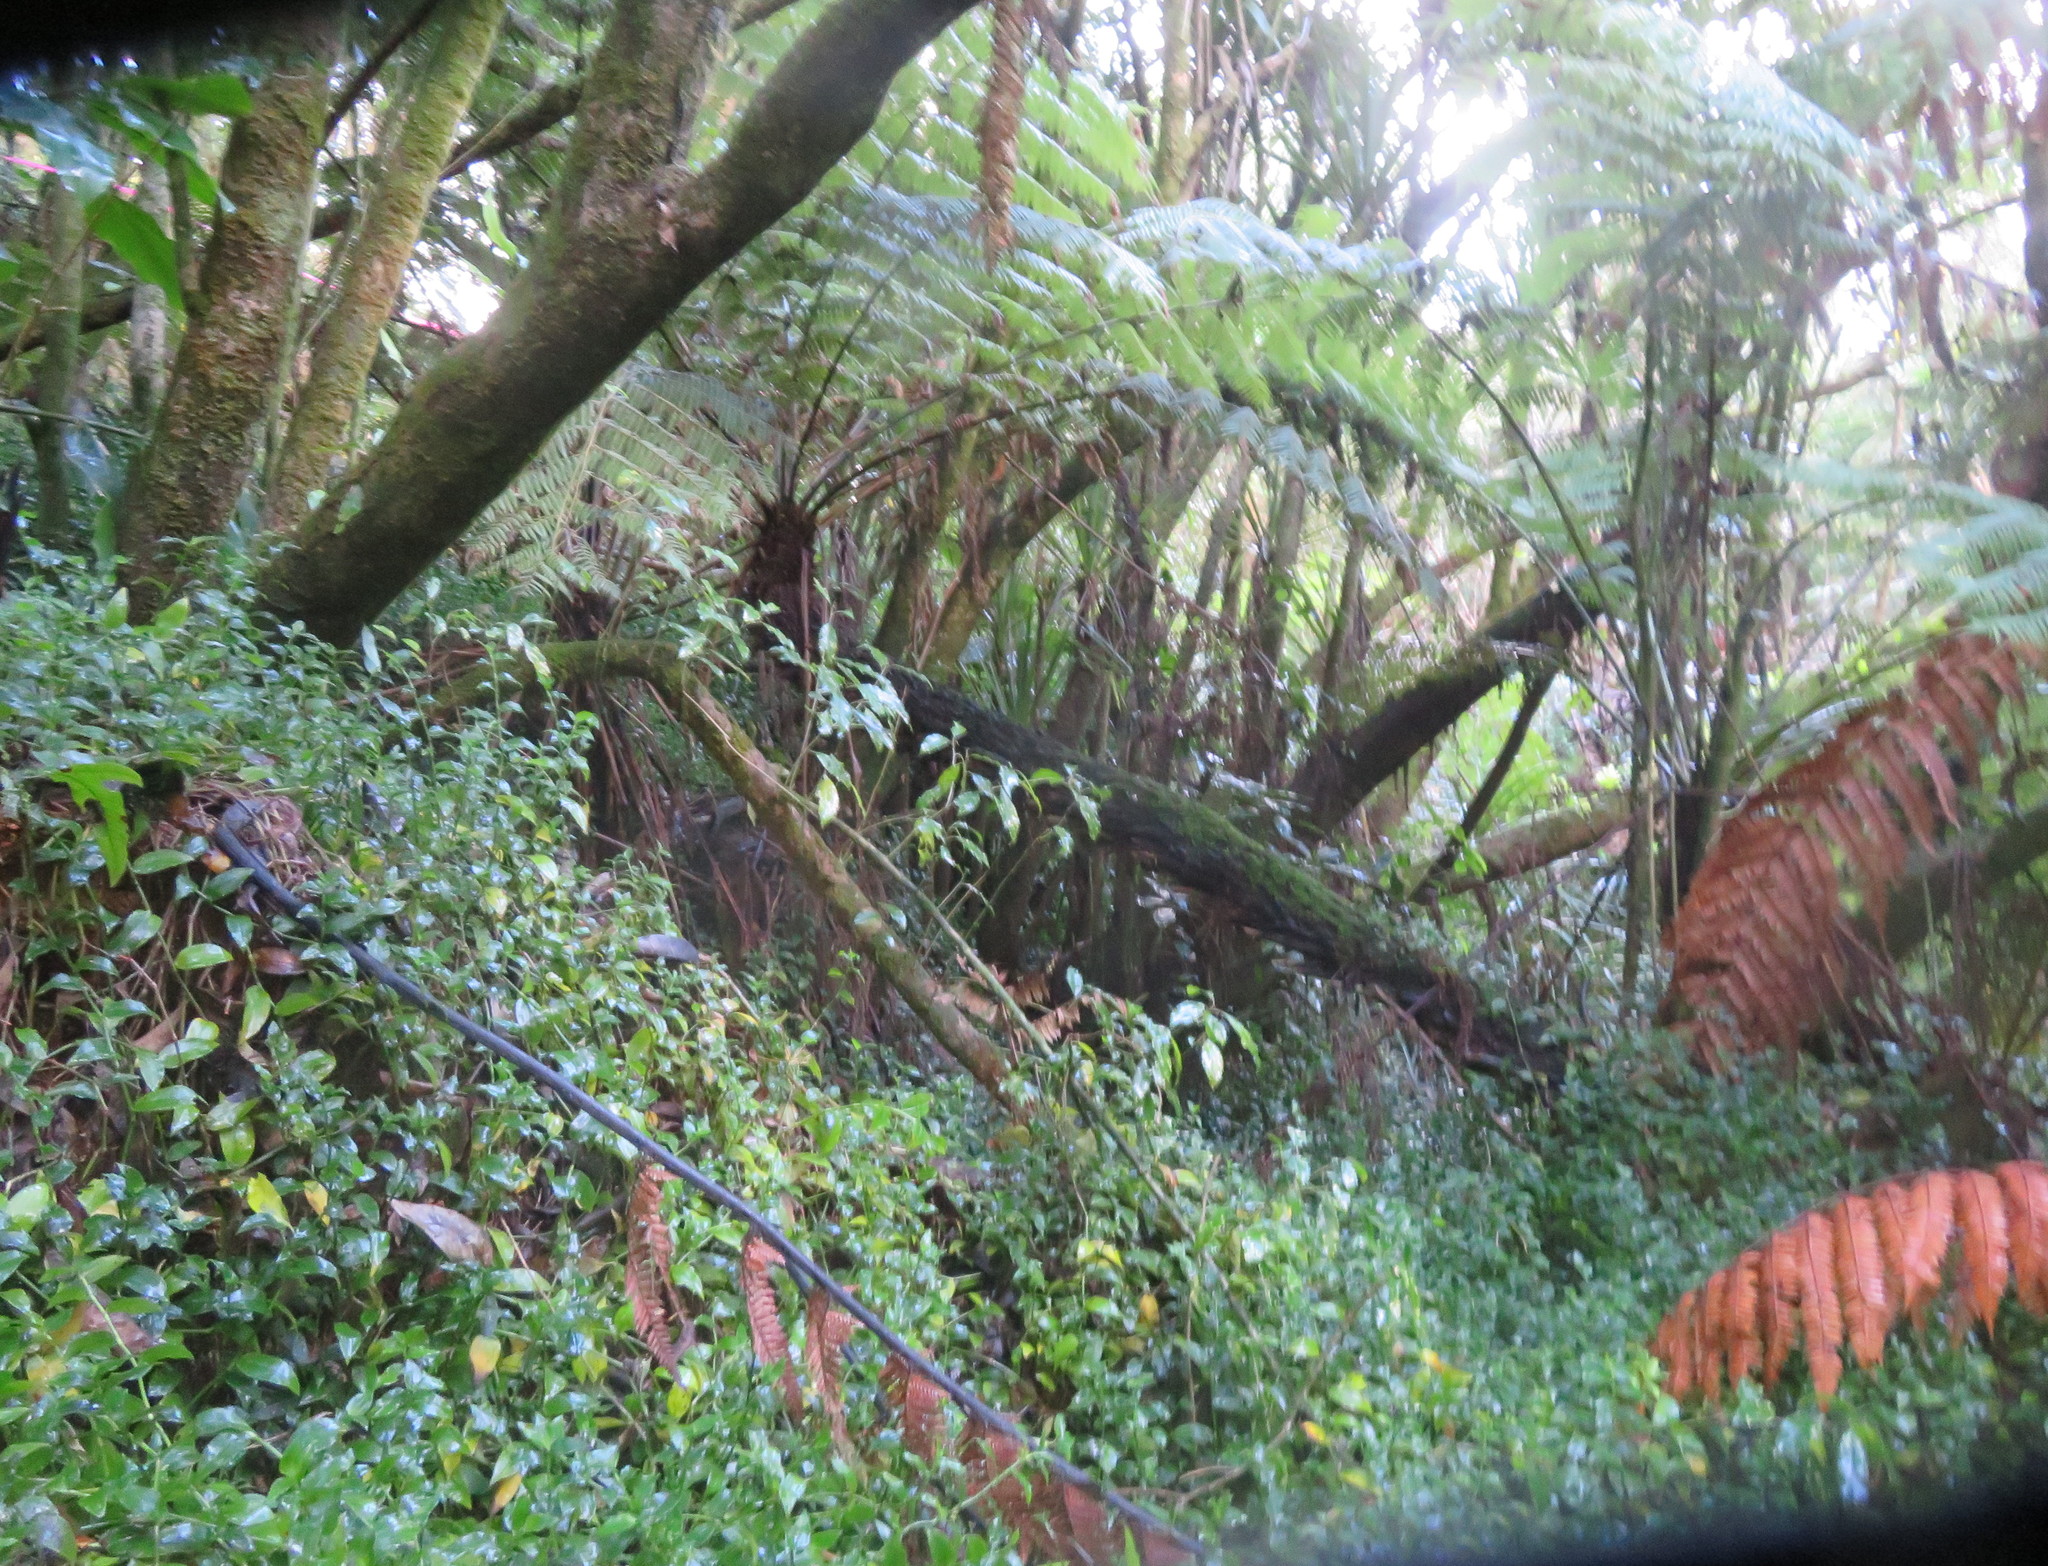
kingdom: Plantae
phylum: Tracheophyta
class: Liliopsida
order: Commelinales
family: Commelinaceae
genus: Tradescantia
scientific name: Tradescantia fluminensis
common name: Wandering-jew
